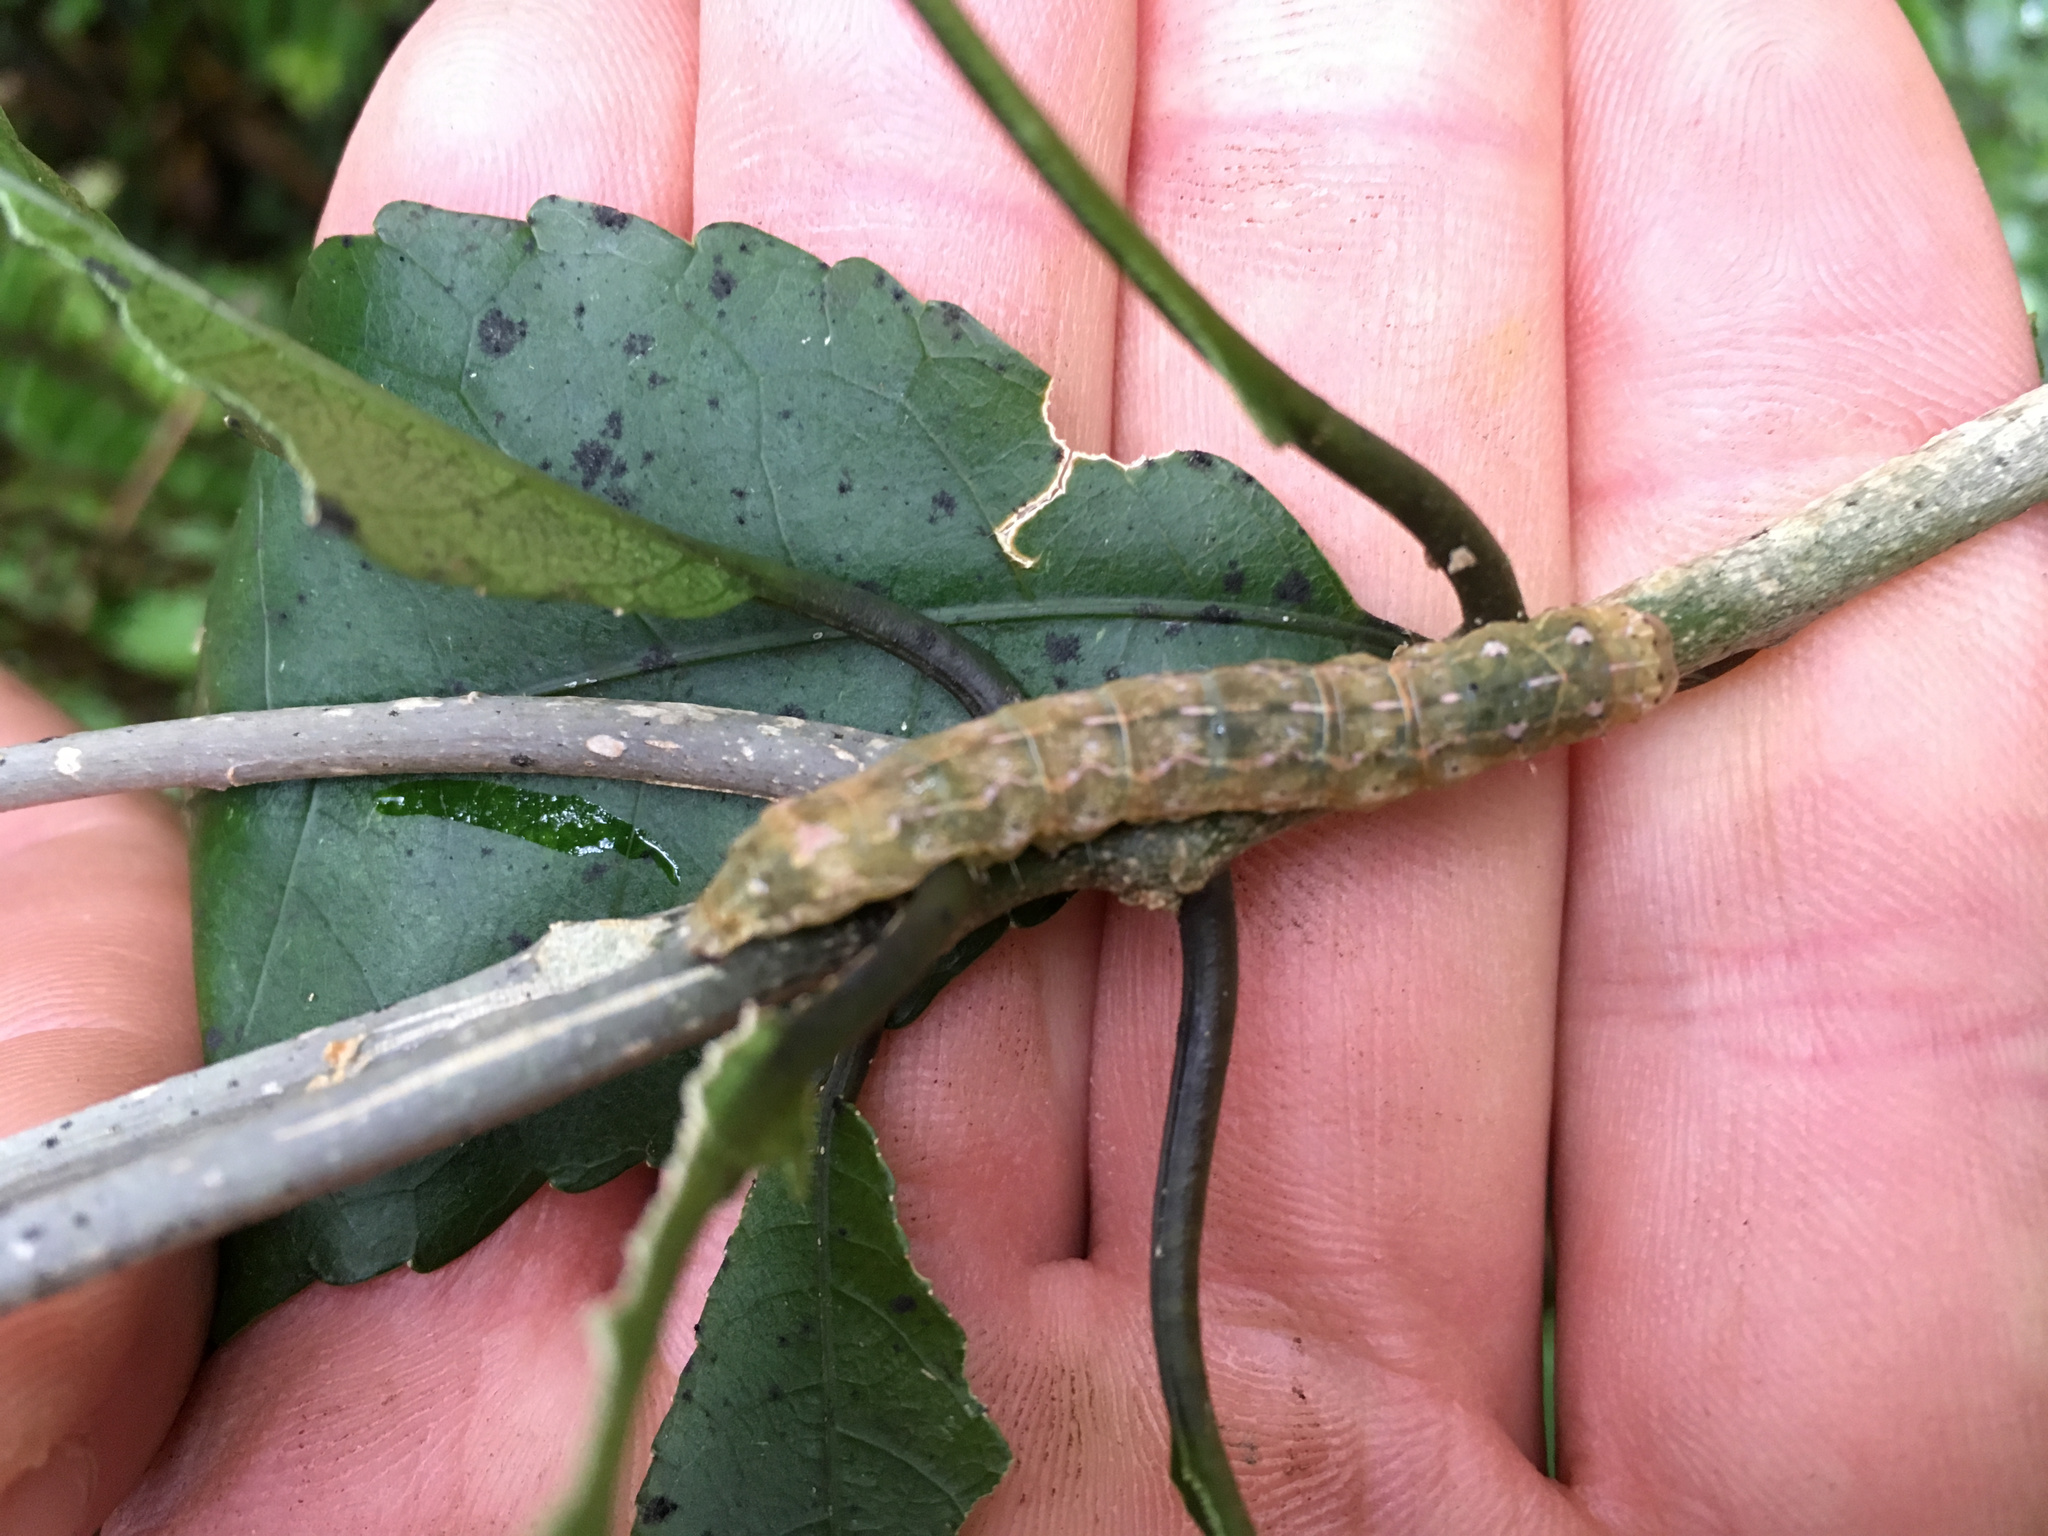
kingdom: Animalia
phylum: Arthropoda
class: Insecta
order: Lepidoptera
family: Noctuidae
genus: Feredayia
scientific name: Feredayia grammosa
